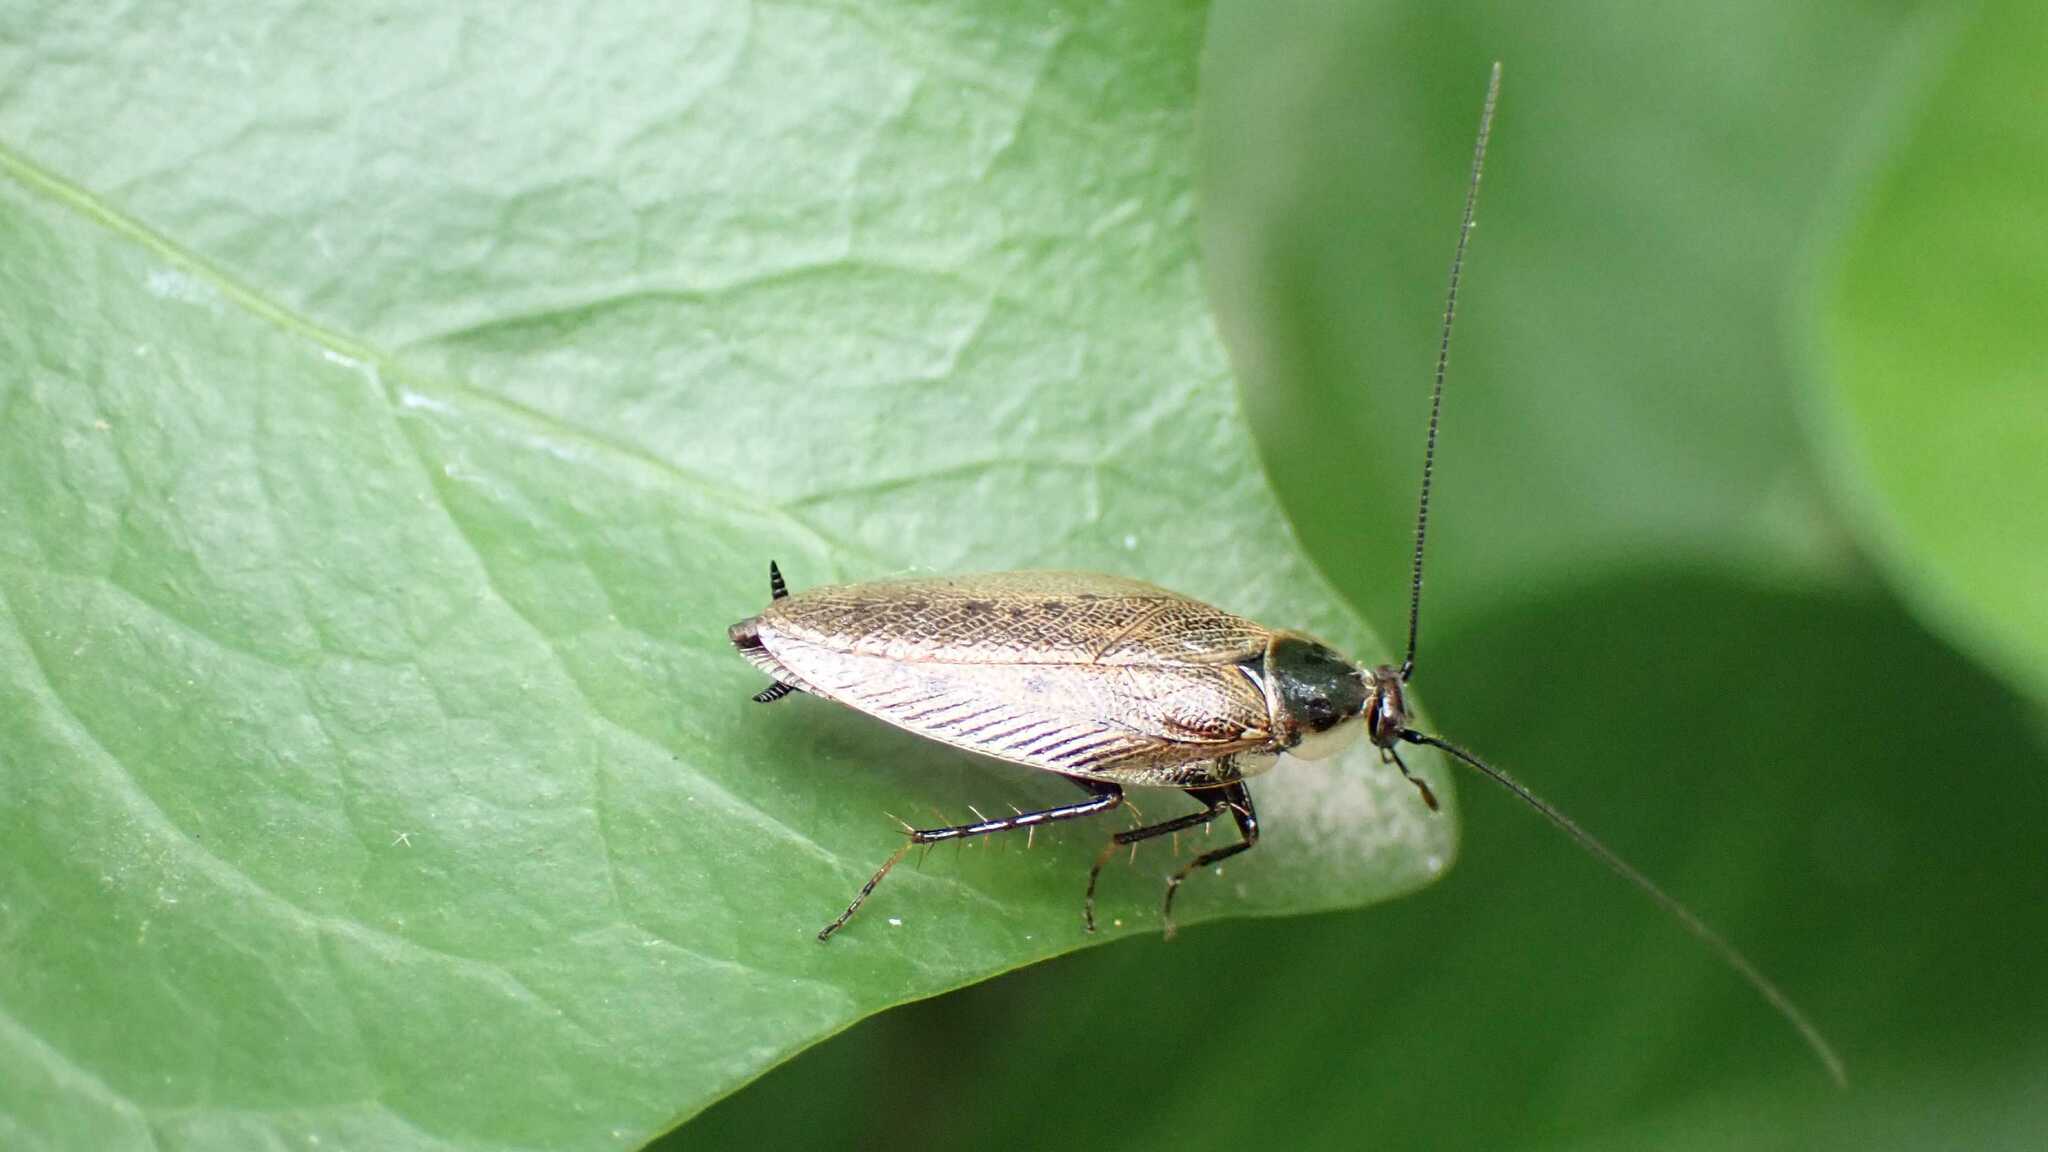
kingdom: Animalia
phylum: Arthropoda
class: Insecta
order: Blattodea
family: Ectobiidae
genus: Ectobius
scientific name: Ectobius lapponicus
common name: Dusky cockroach
